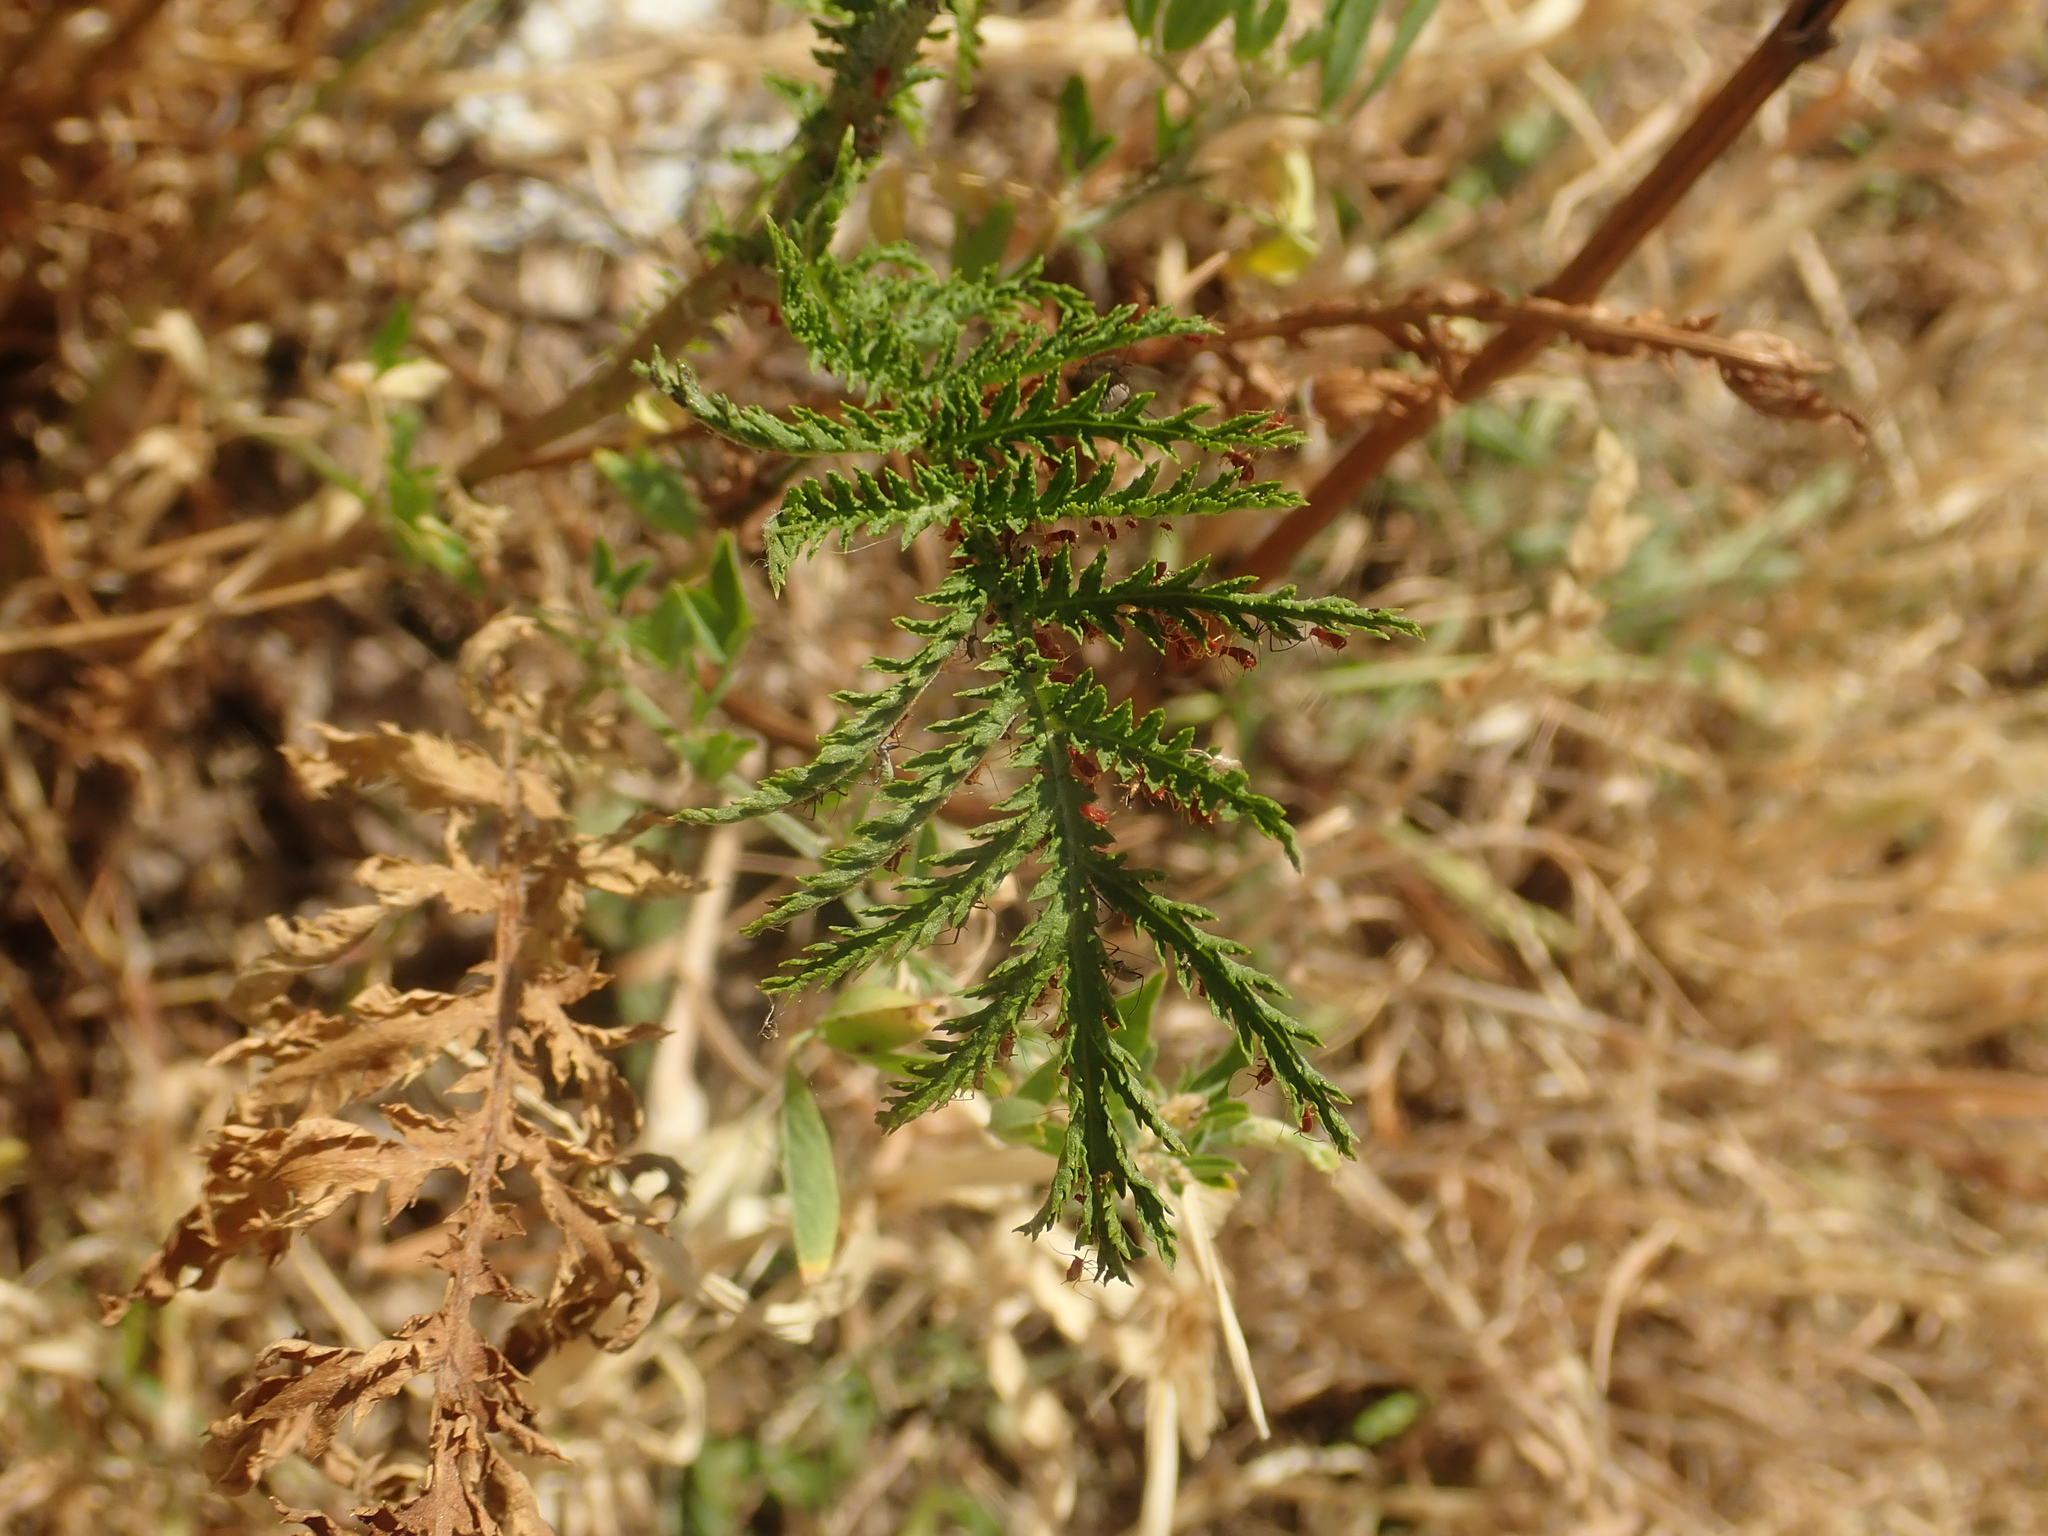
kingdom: Plantae
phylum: Tracheophyta
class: Magnoliopsida
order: Asterales
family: Asteraceae
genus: Tanacetum
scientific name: Tanacetum vulgare
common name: Common tansy
